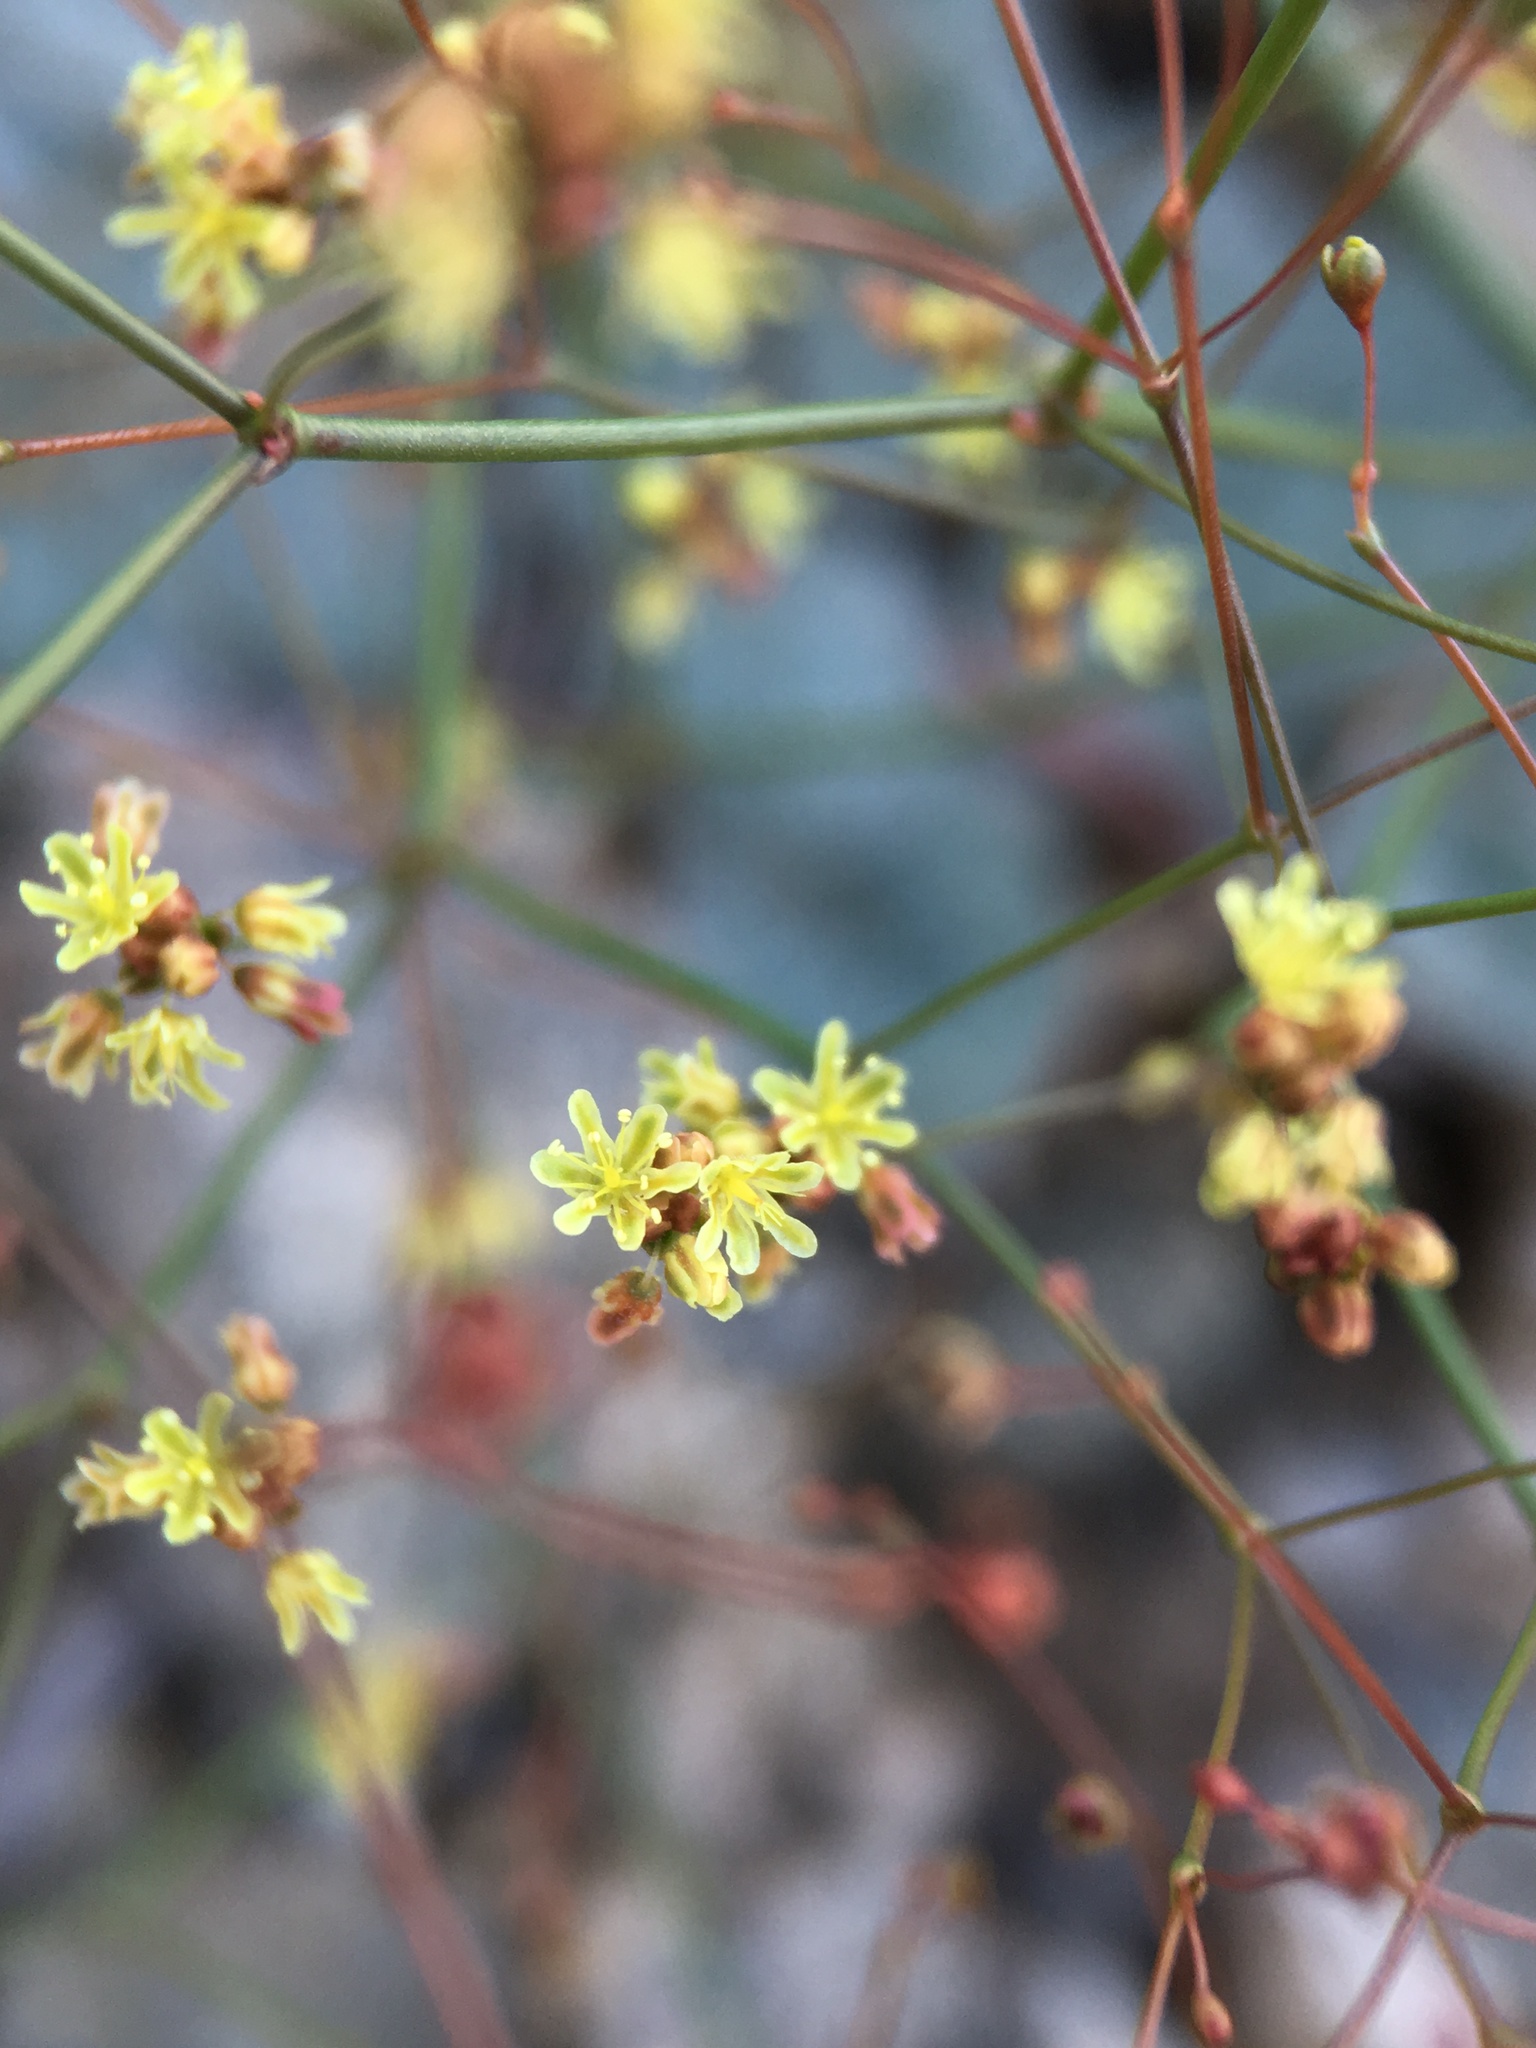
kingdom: Plantae
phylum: Tracheophyta
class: Magnoliopsida
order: Caryophyllales
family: Polygonaceae
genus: Eriogonum
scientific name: Eriogonum thomasii
